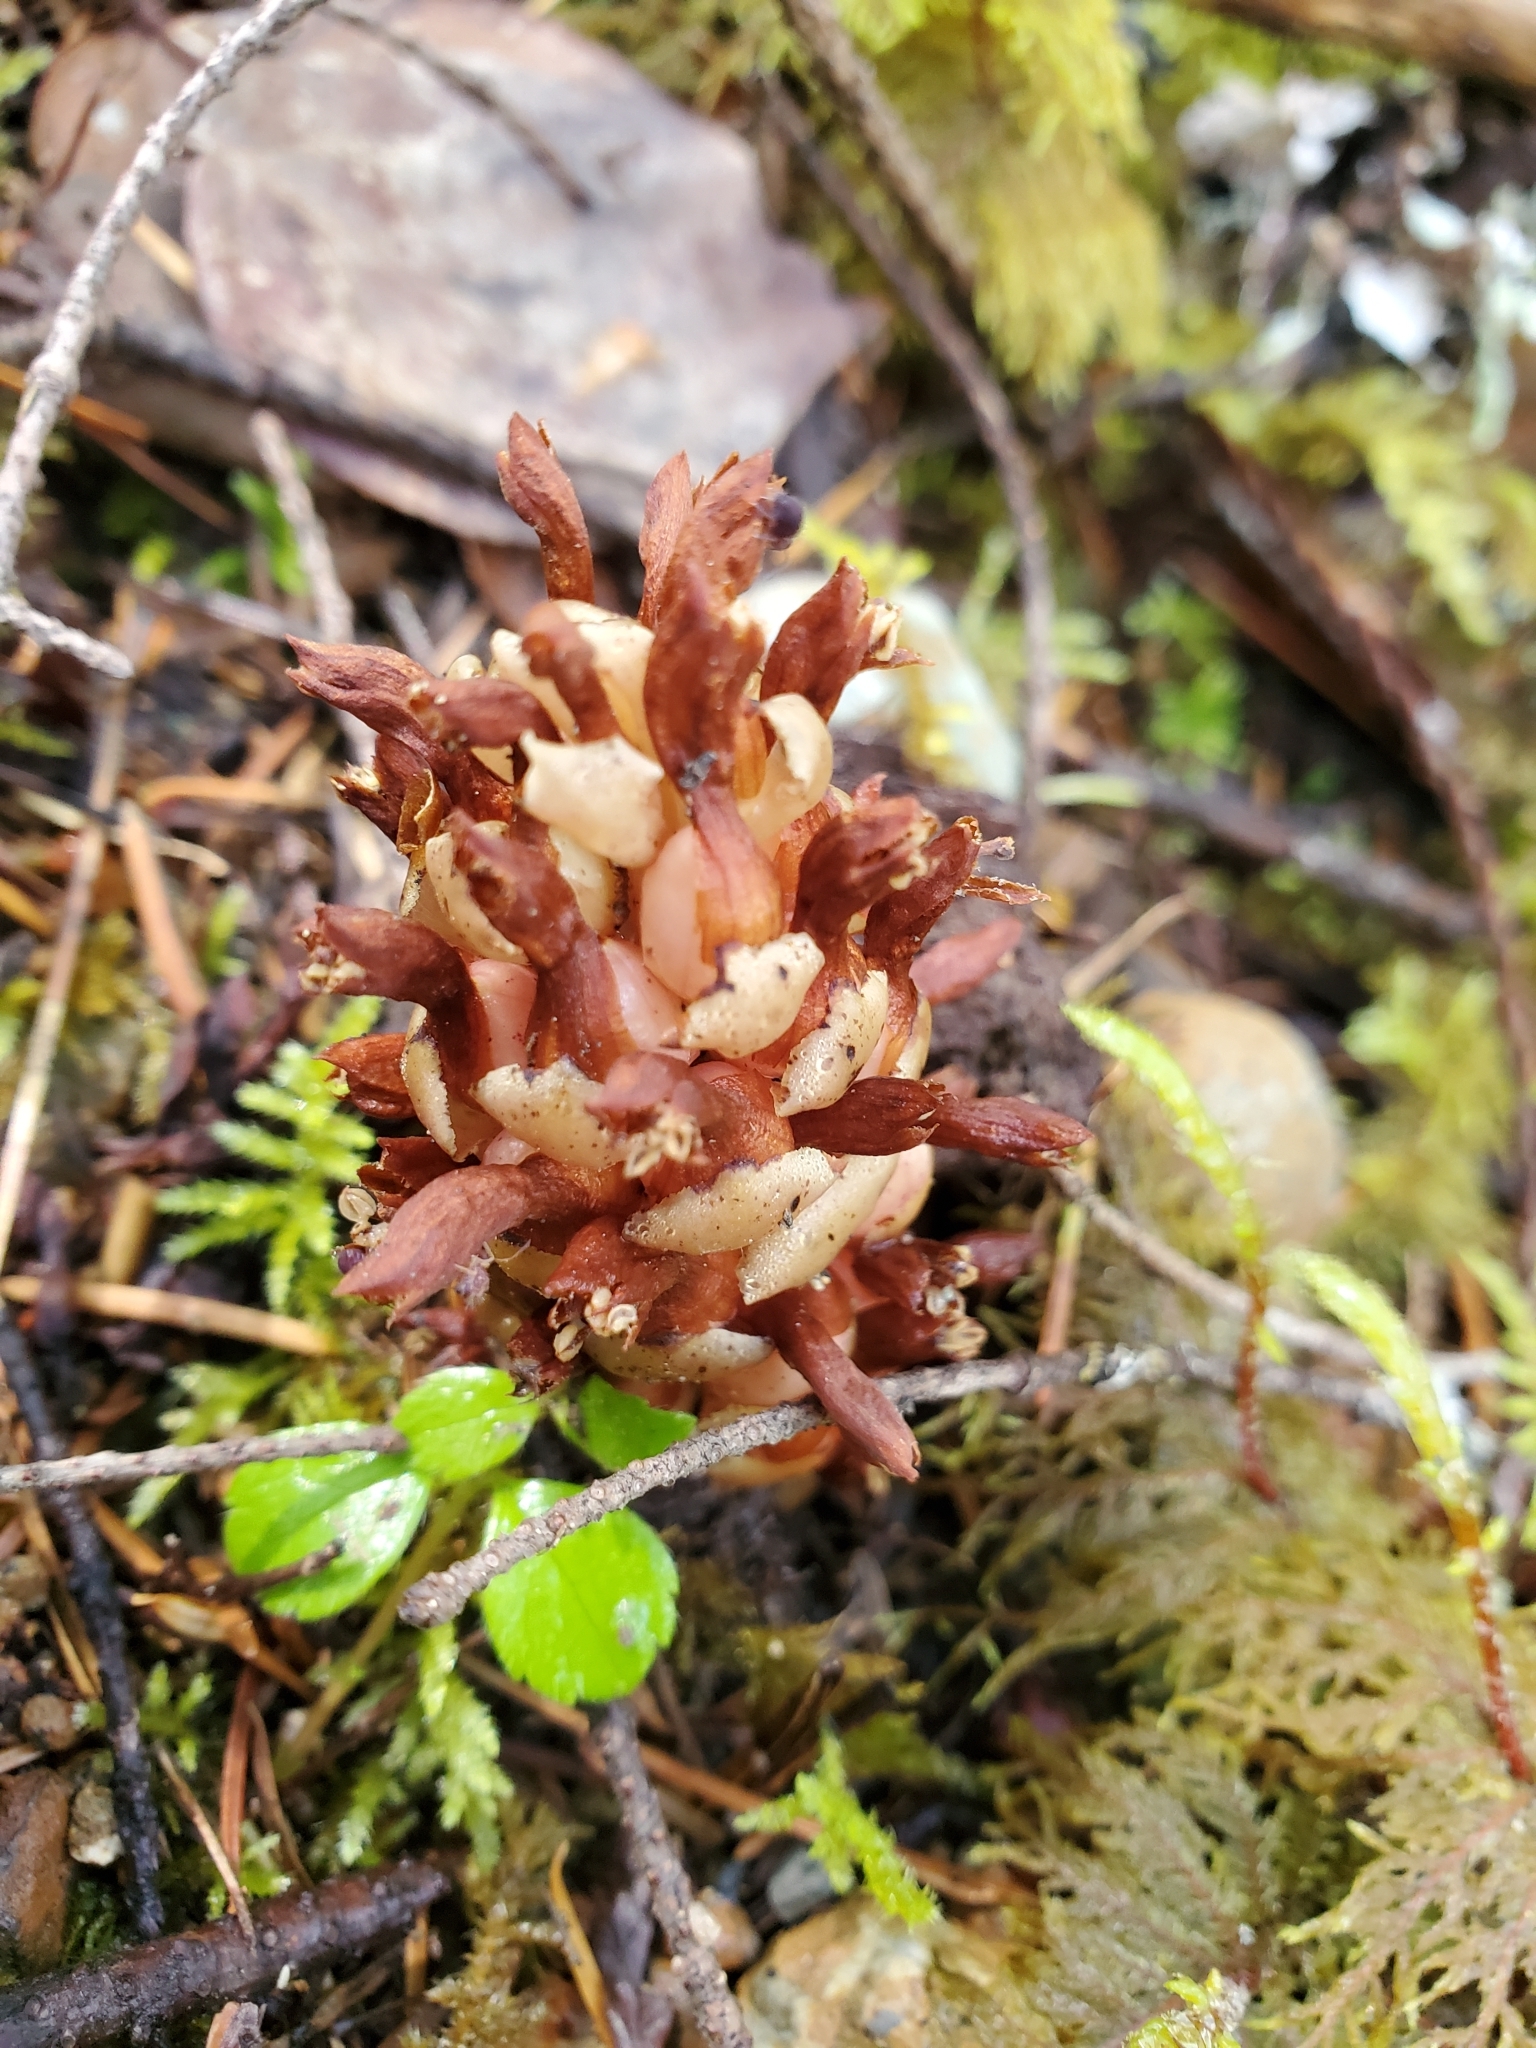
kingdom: Plantae
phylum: Tracheophyta
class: Magnoliopsida
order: Lamiales
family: Orobanchaceae
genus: Kopsiopsis
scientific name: Kopsiopsis hookeri
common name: Hooker's groundcone
